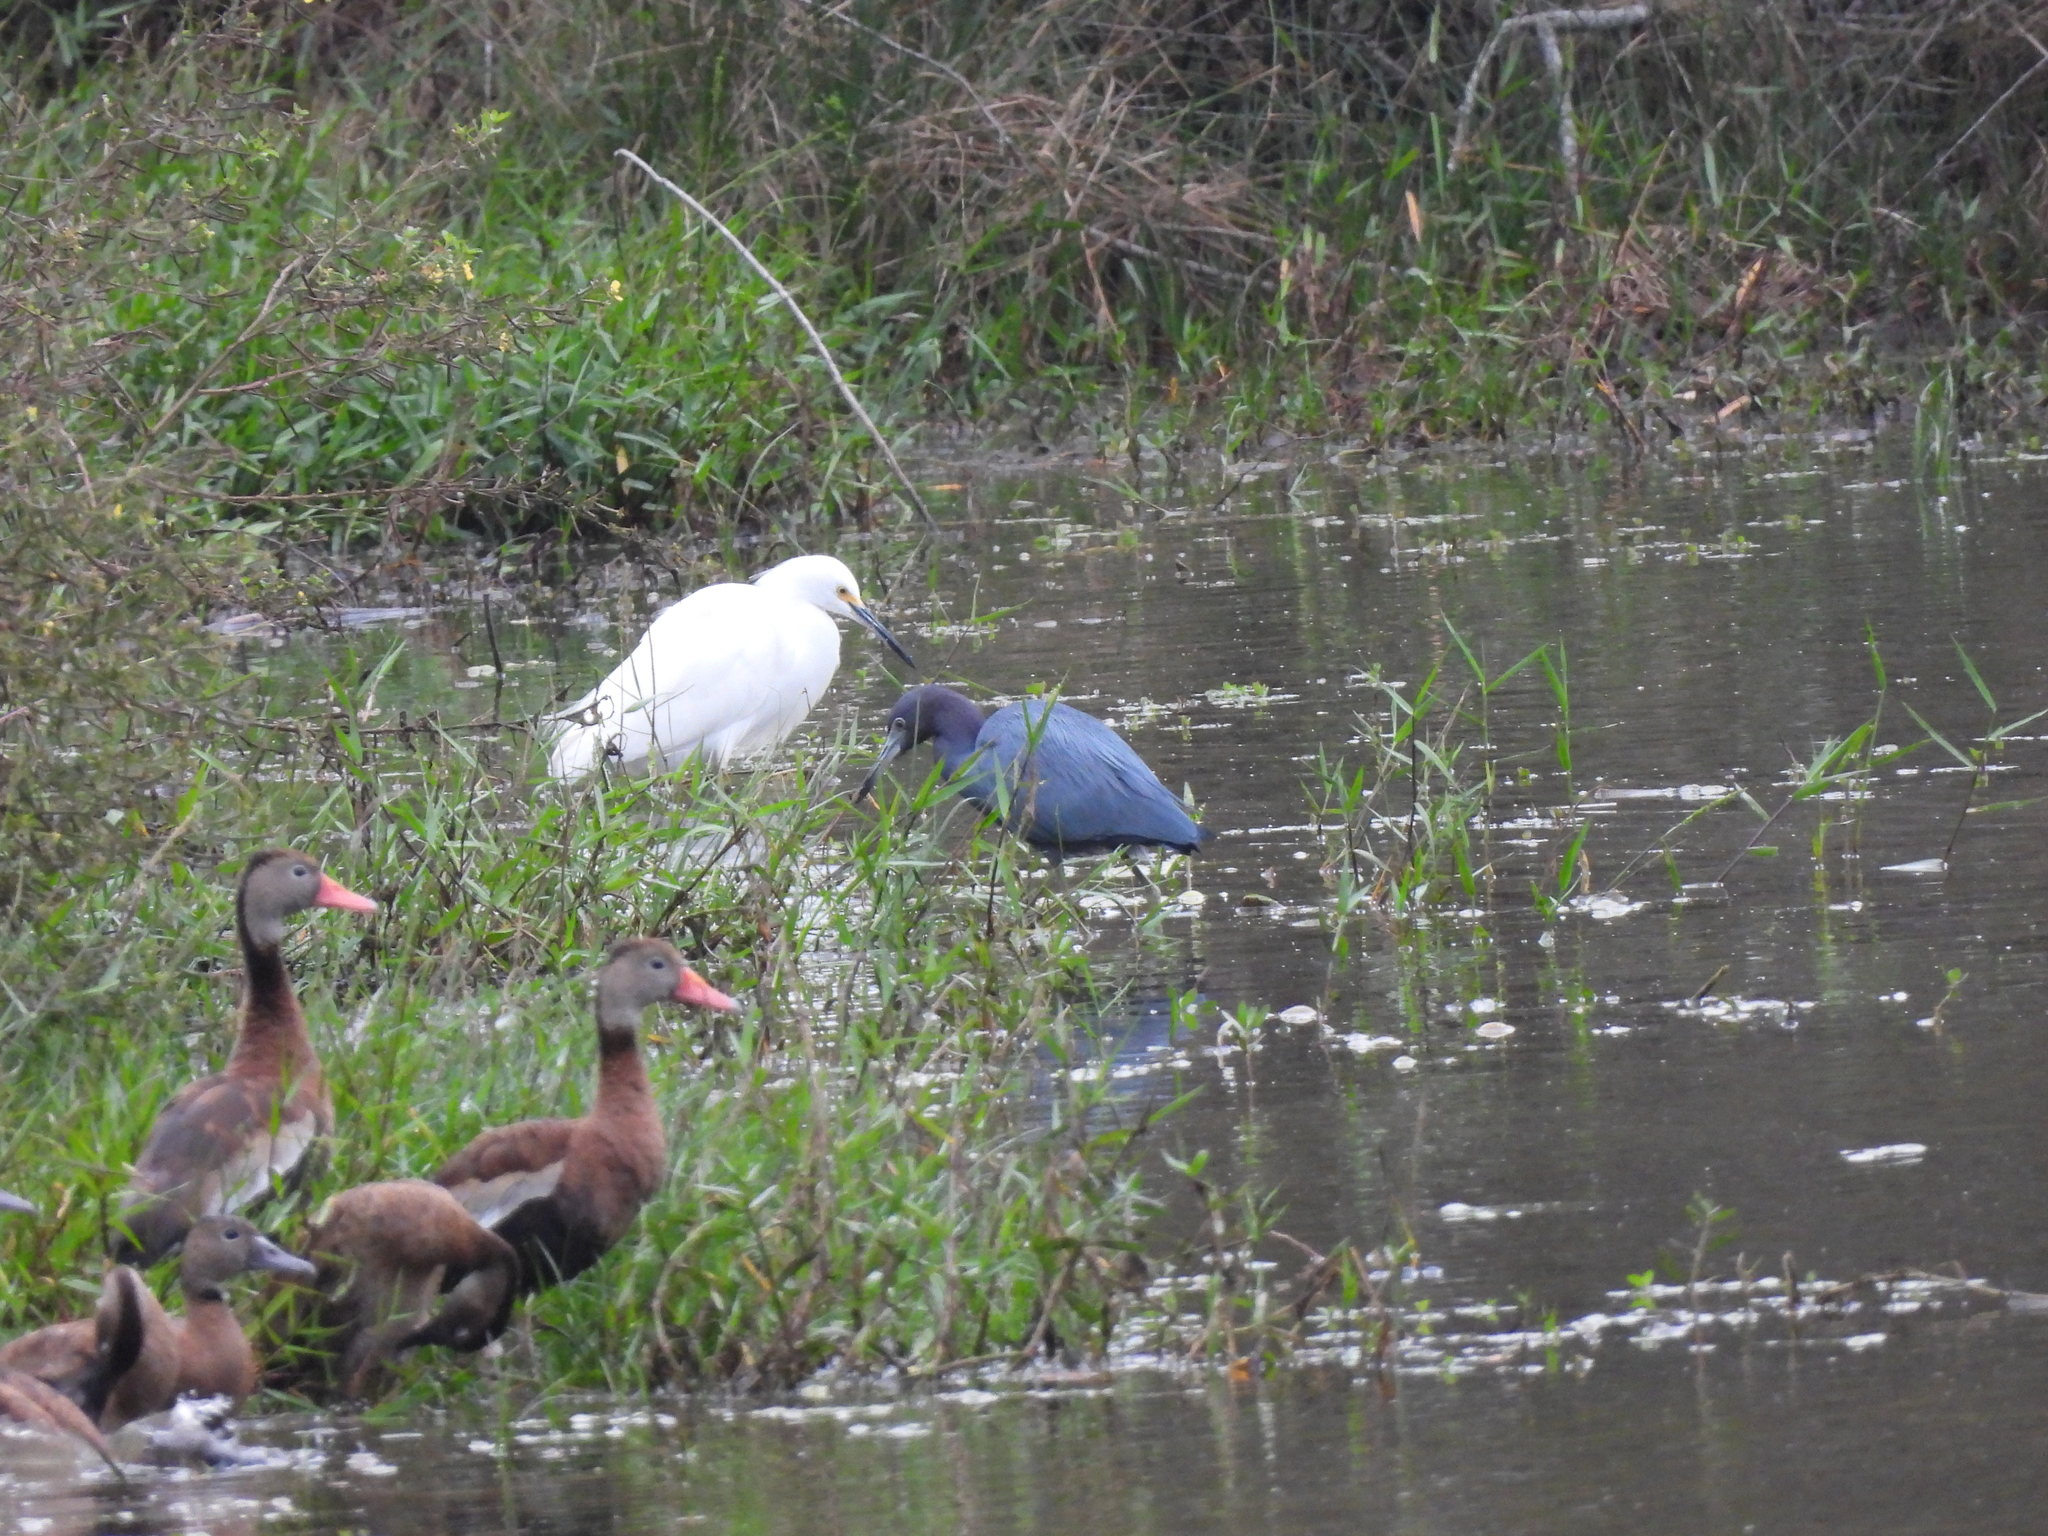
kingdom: Animalia
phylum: Chordata
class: Aves
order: Pelecaniformes
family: Ardeidae
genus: Egretta
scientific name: Egretta caerulea
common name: Little blue heron
